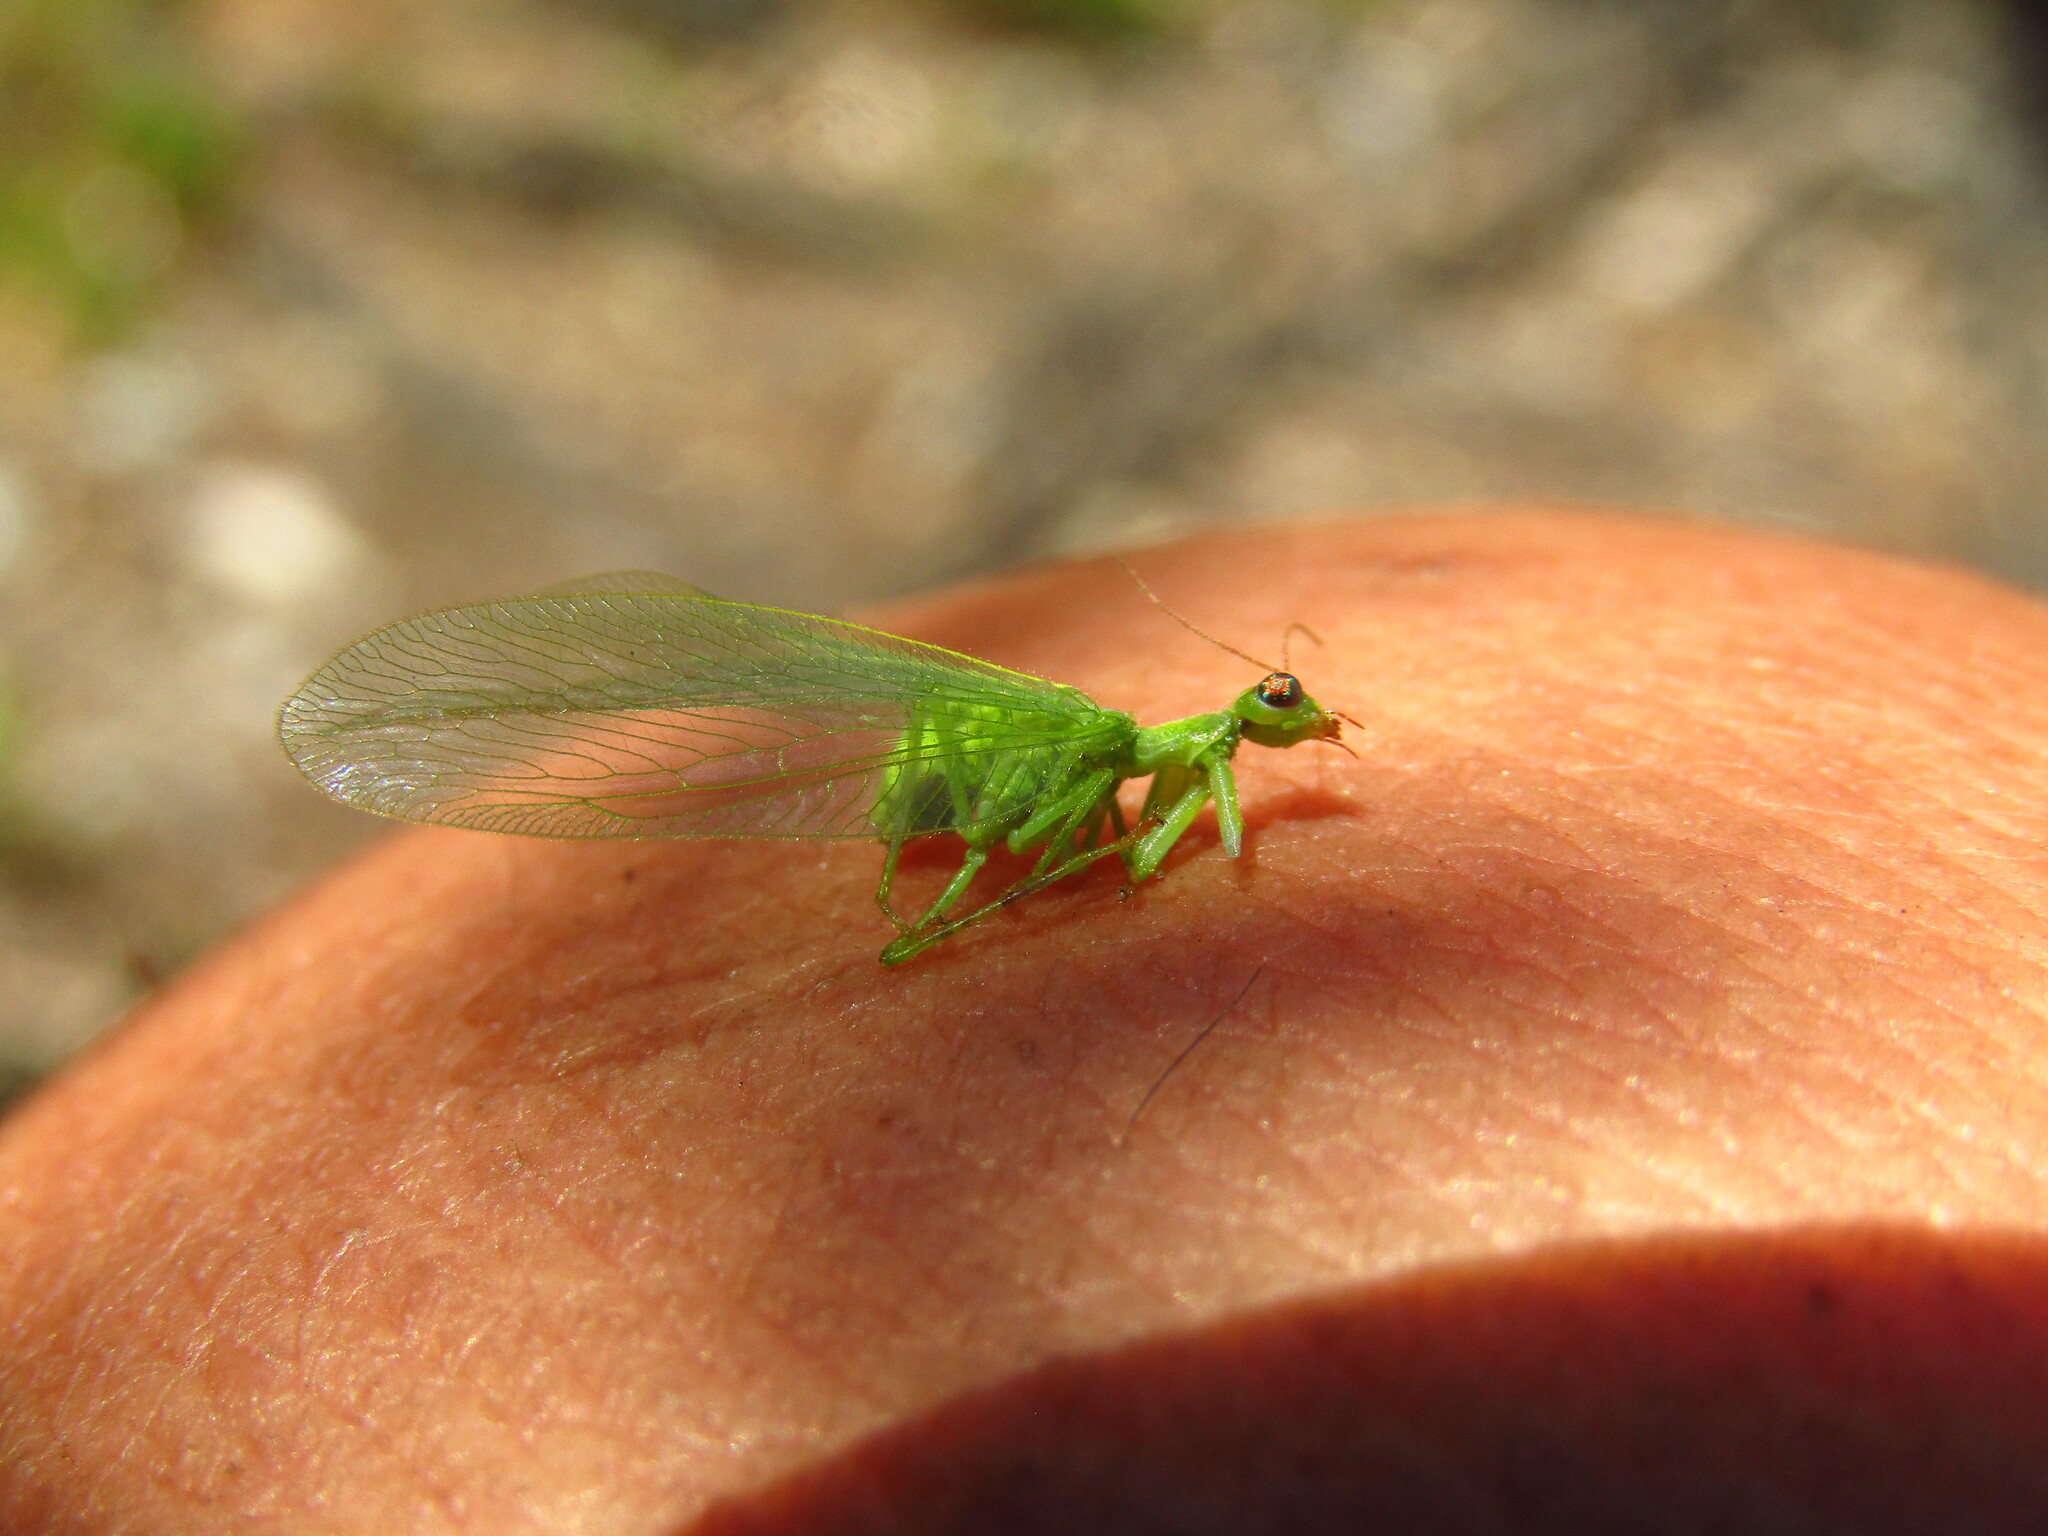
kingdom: Animalia
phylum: Arthropoda
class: Insecta
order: Neuroptera
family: Mantispidae
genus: Drepanicus
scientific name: Drepanicus chrysopinus
